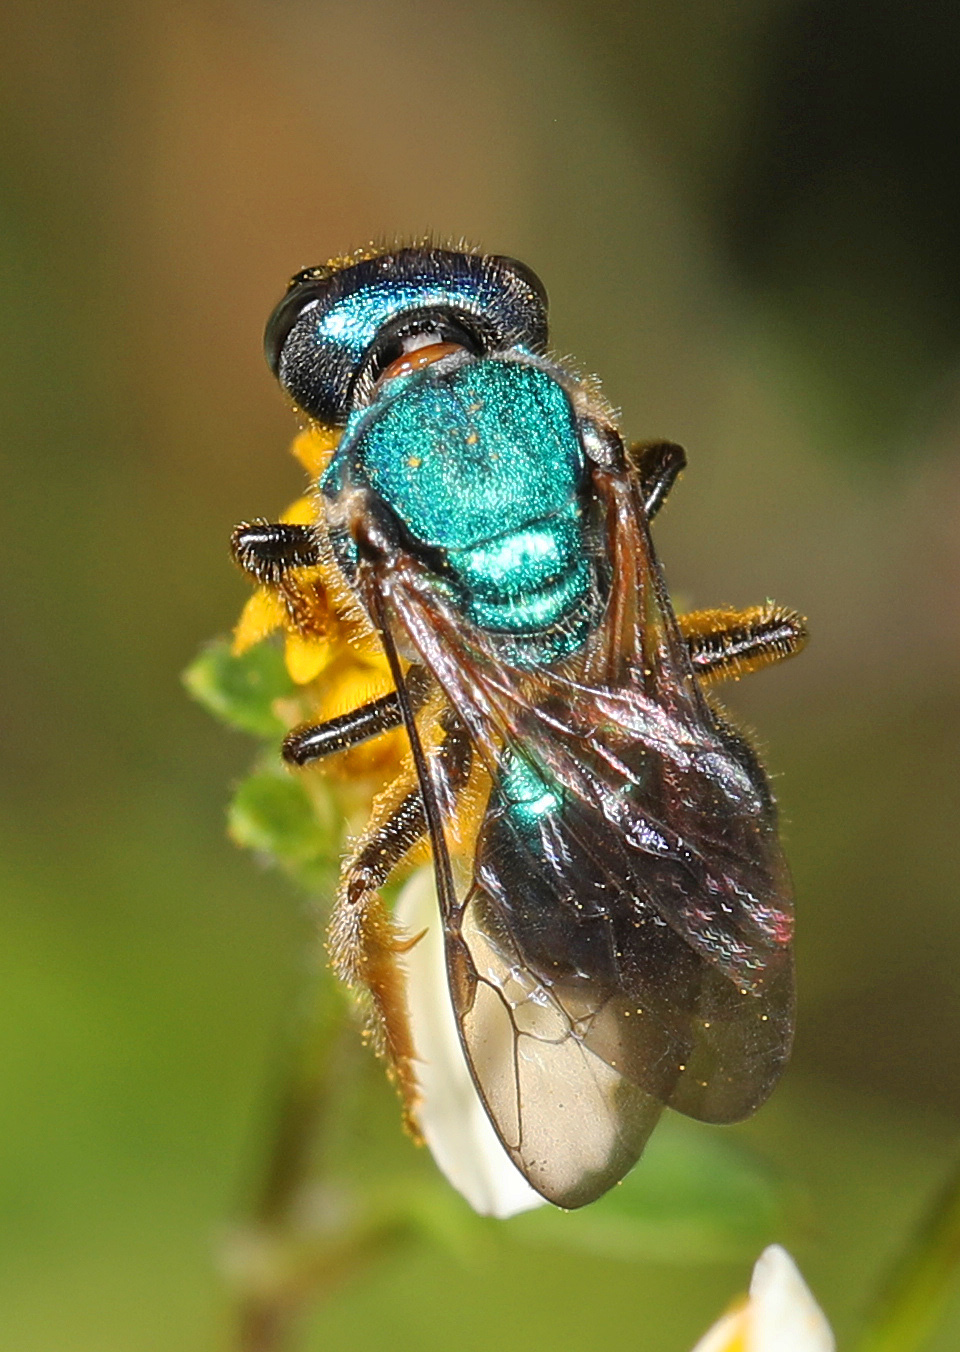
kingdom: Animalia
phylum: Arthropoda
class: Insecta
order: Hymenoptera
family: Halictidae
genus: Augochlora
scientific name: Augochlora pura
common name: Pure green sweat bee
